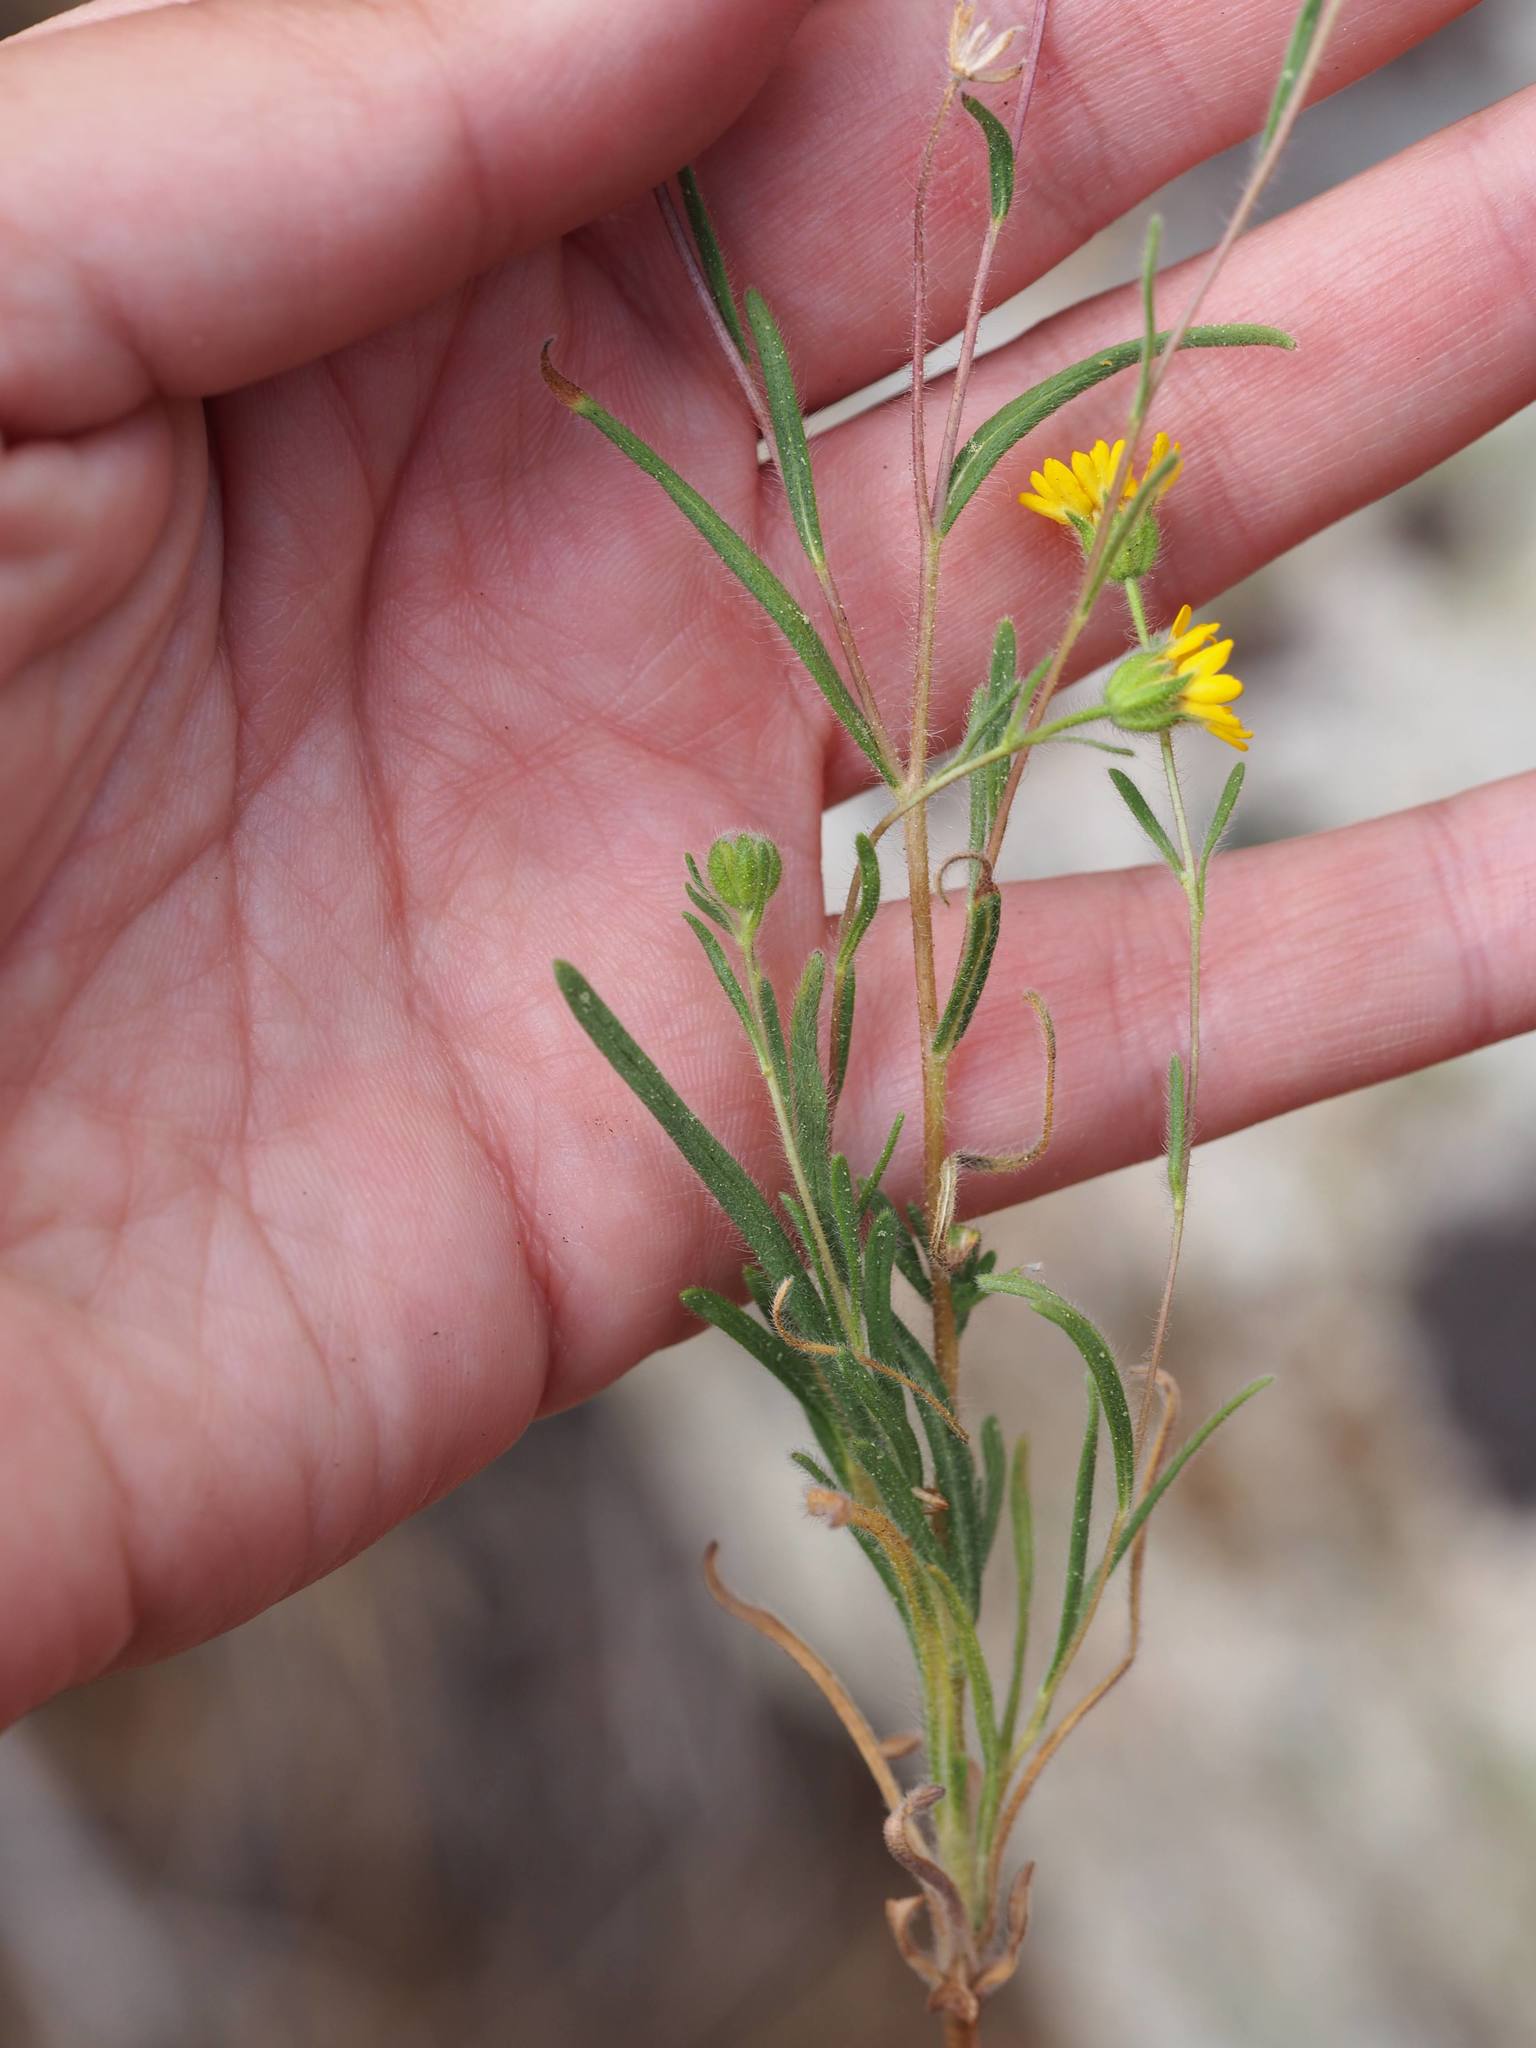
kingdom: Plantae
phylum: Tracheophyta
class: Magnoliopsida
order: Asterales
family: Asteraceae
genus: Madia
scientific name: Madia elegans
